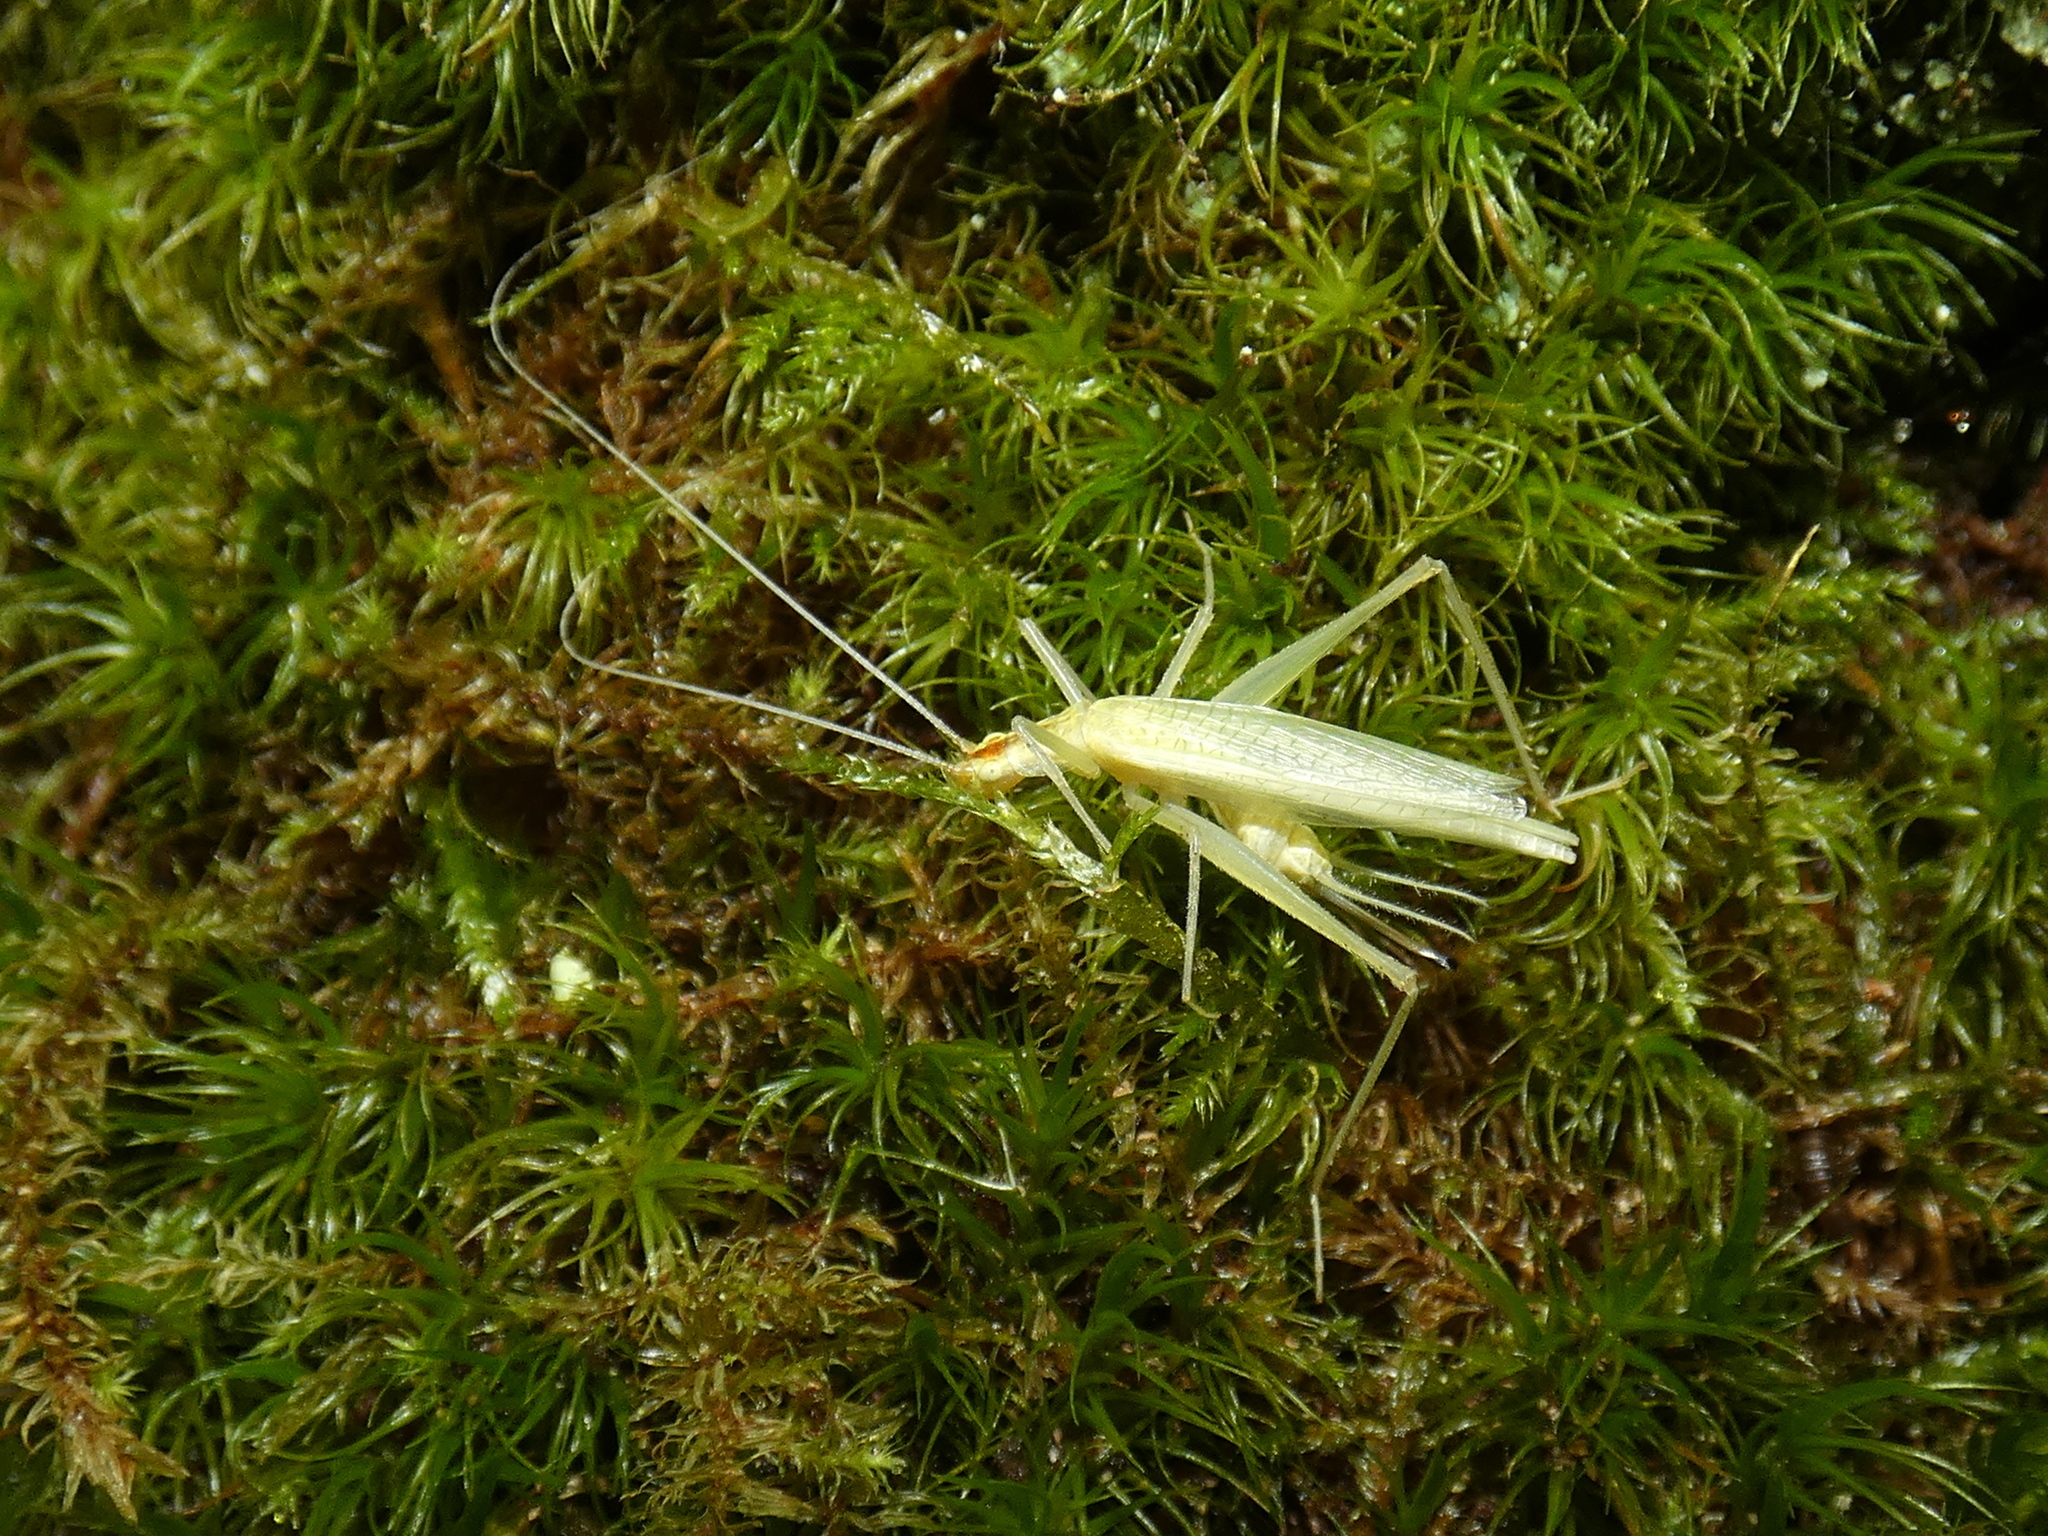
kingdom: Animalia
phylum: Arthropoda
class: Insecta
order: Orthoptera
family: Gryllidae
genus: Oecanthus
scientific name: Oecanthus niveus
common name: Narrow-winged tree cricket
